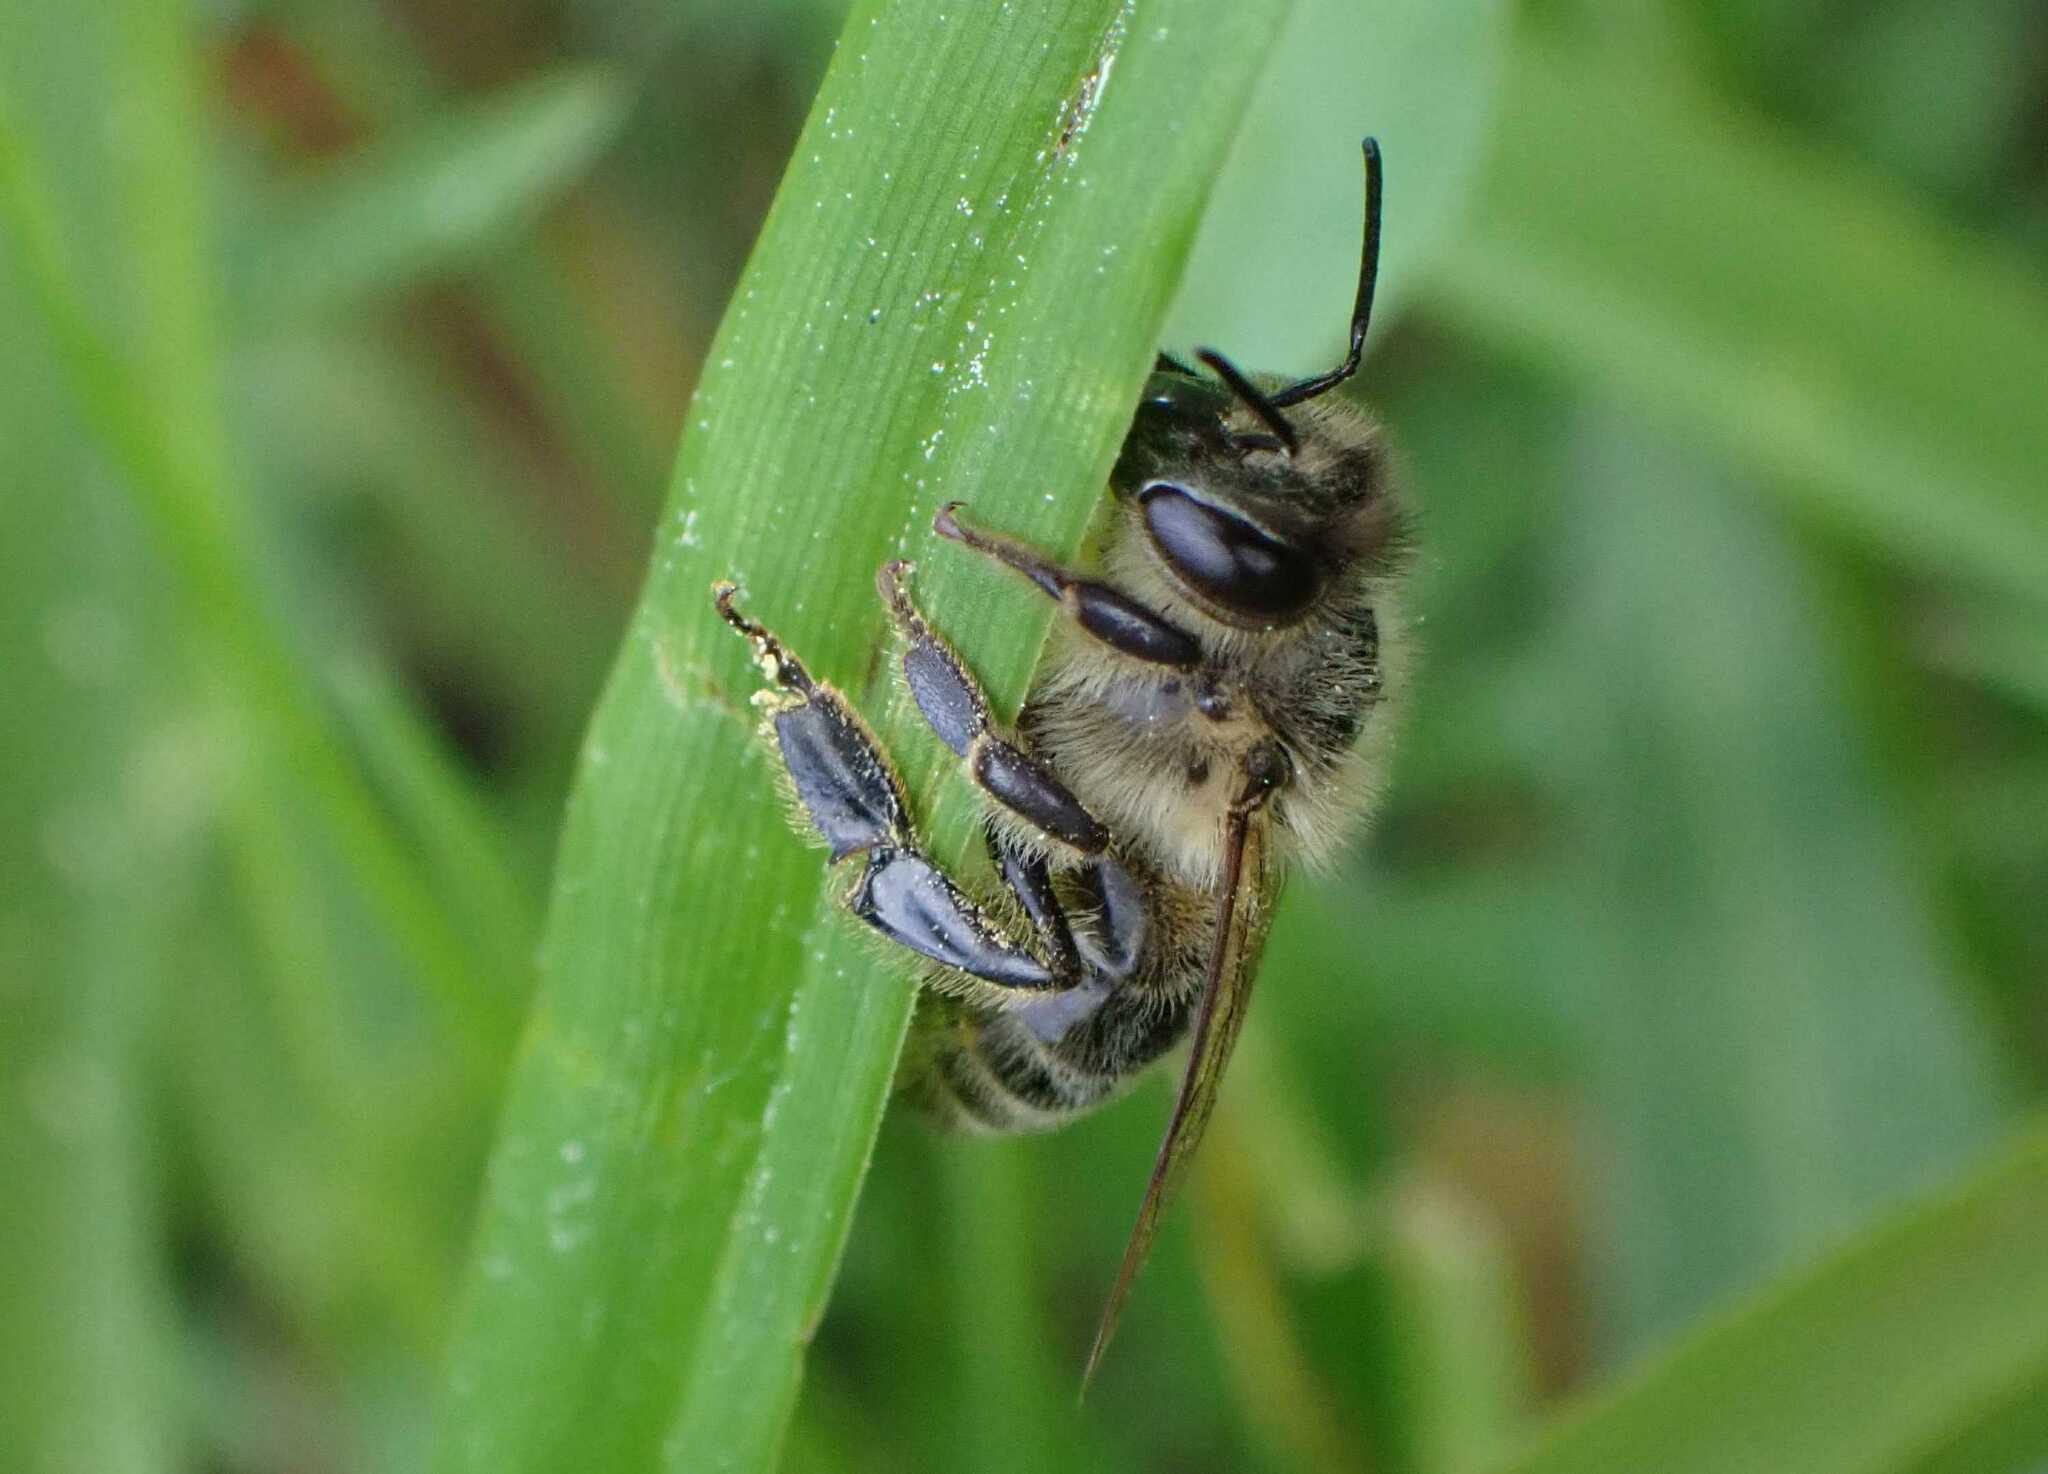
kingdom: Animalia
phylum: Arthropoda
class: Insecta
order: Hymenoptera
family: Apidae
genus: Apis
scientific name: Apis mellifera
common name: Honey bee
